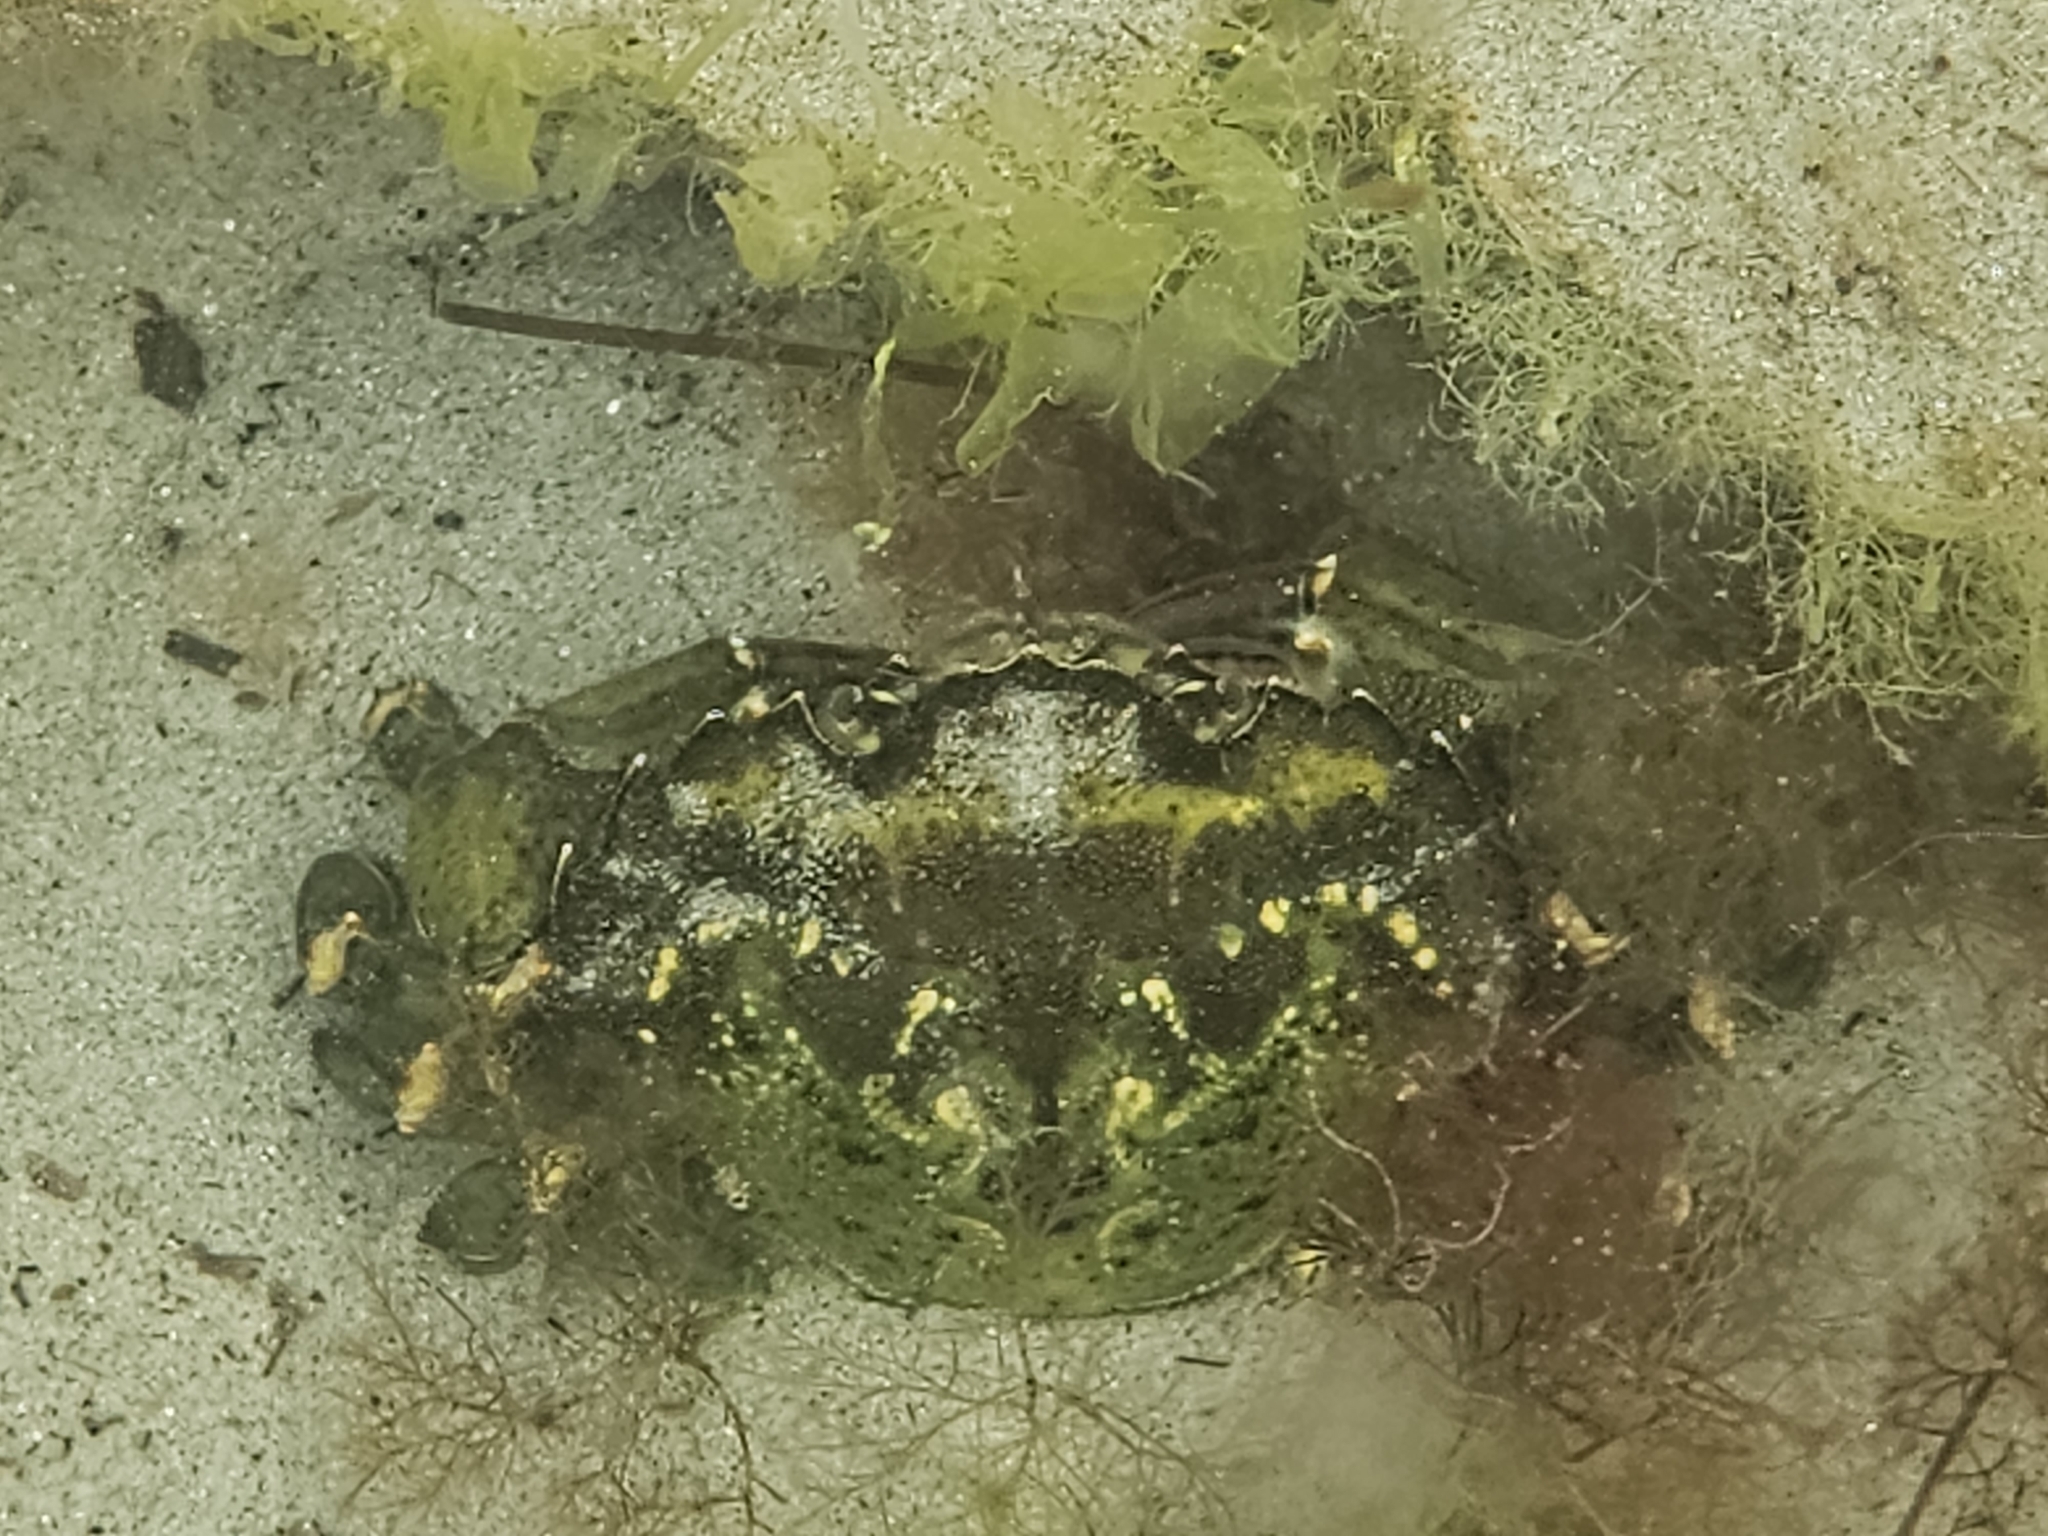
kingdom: Animalia
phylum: Arthropoda
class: Malacostraca
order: Decapoda
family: Carcinidae
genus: Carcinus
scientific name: Carcinus maenas
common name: European green crab
